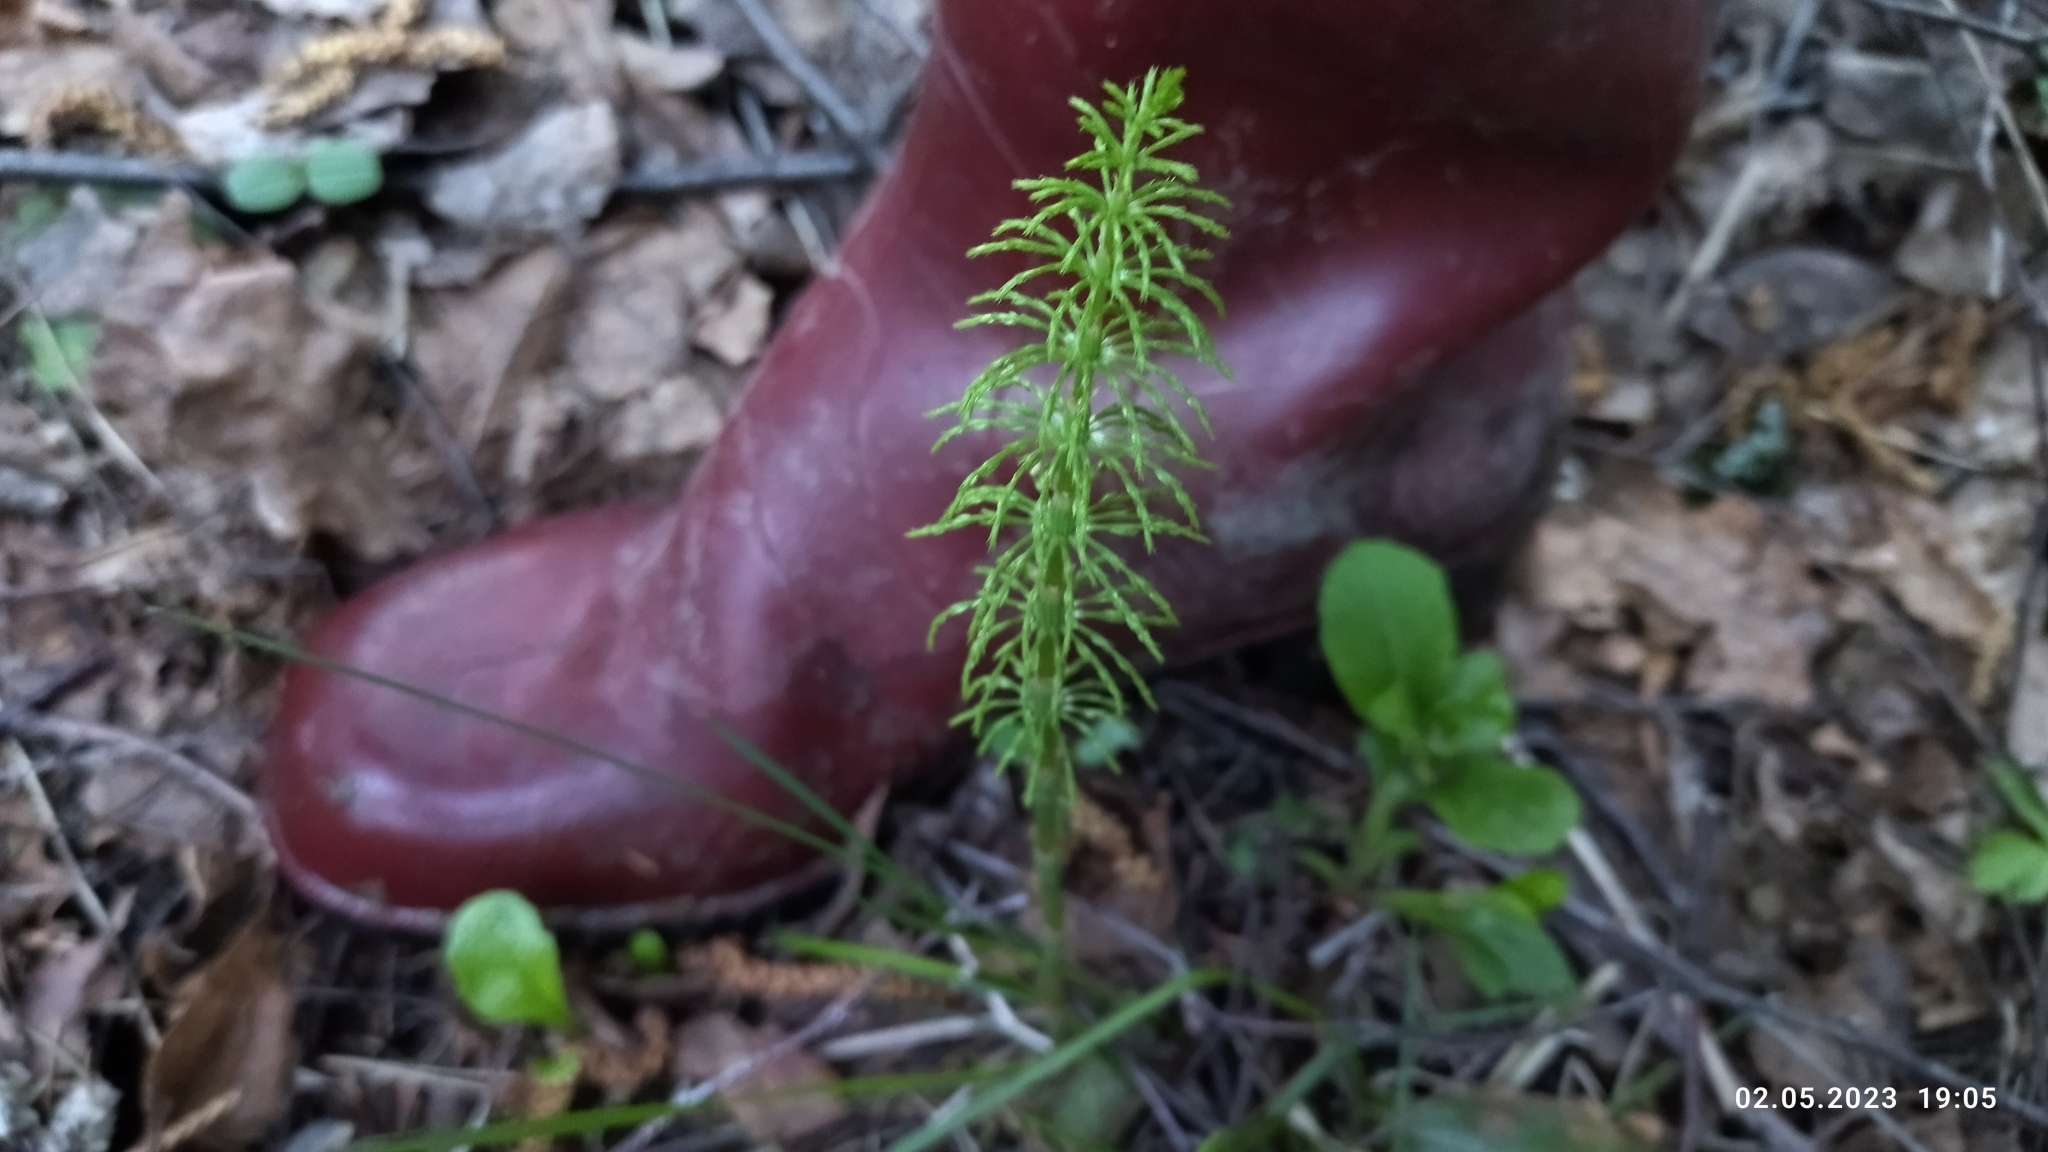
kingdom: Plantae
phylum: Tracheophyta
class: Polypodiopsida
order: Equisetales
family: Equisetaceae
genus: Equisetum
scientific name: Equisetum sylvaticum
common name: Wood horsetail
